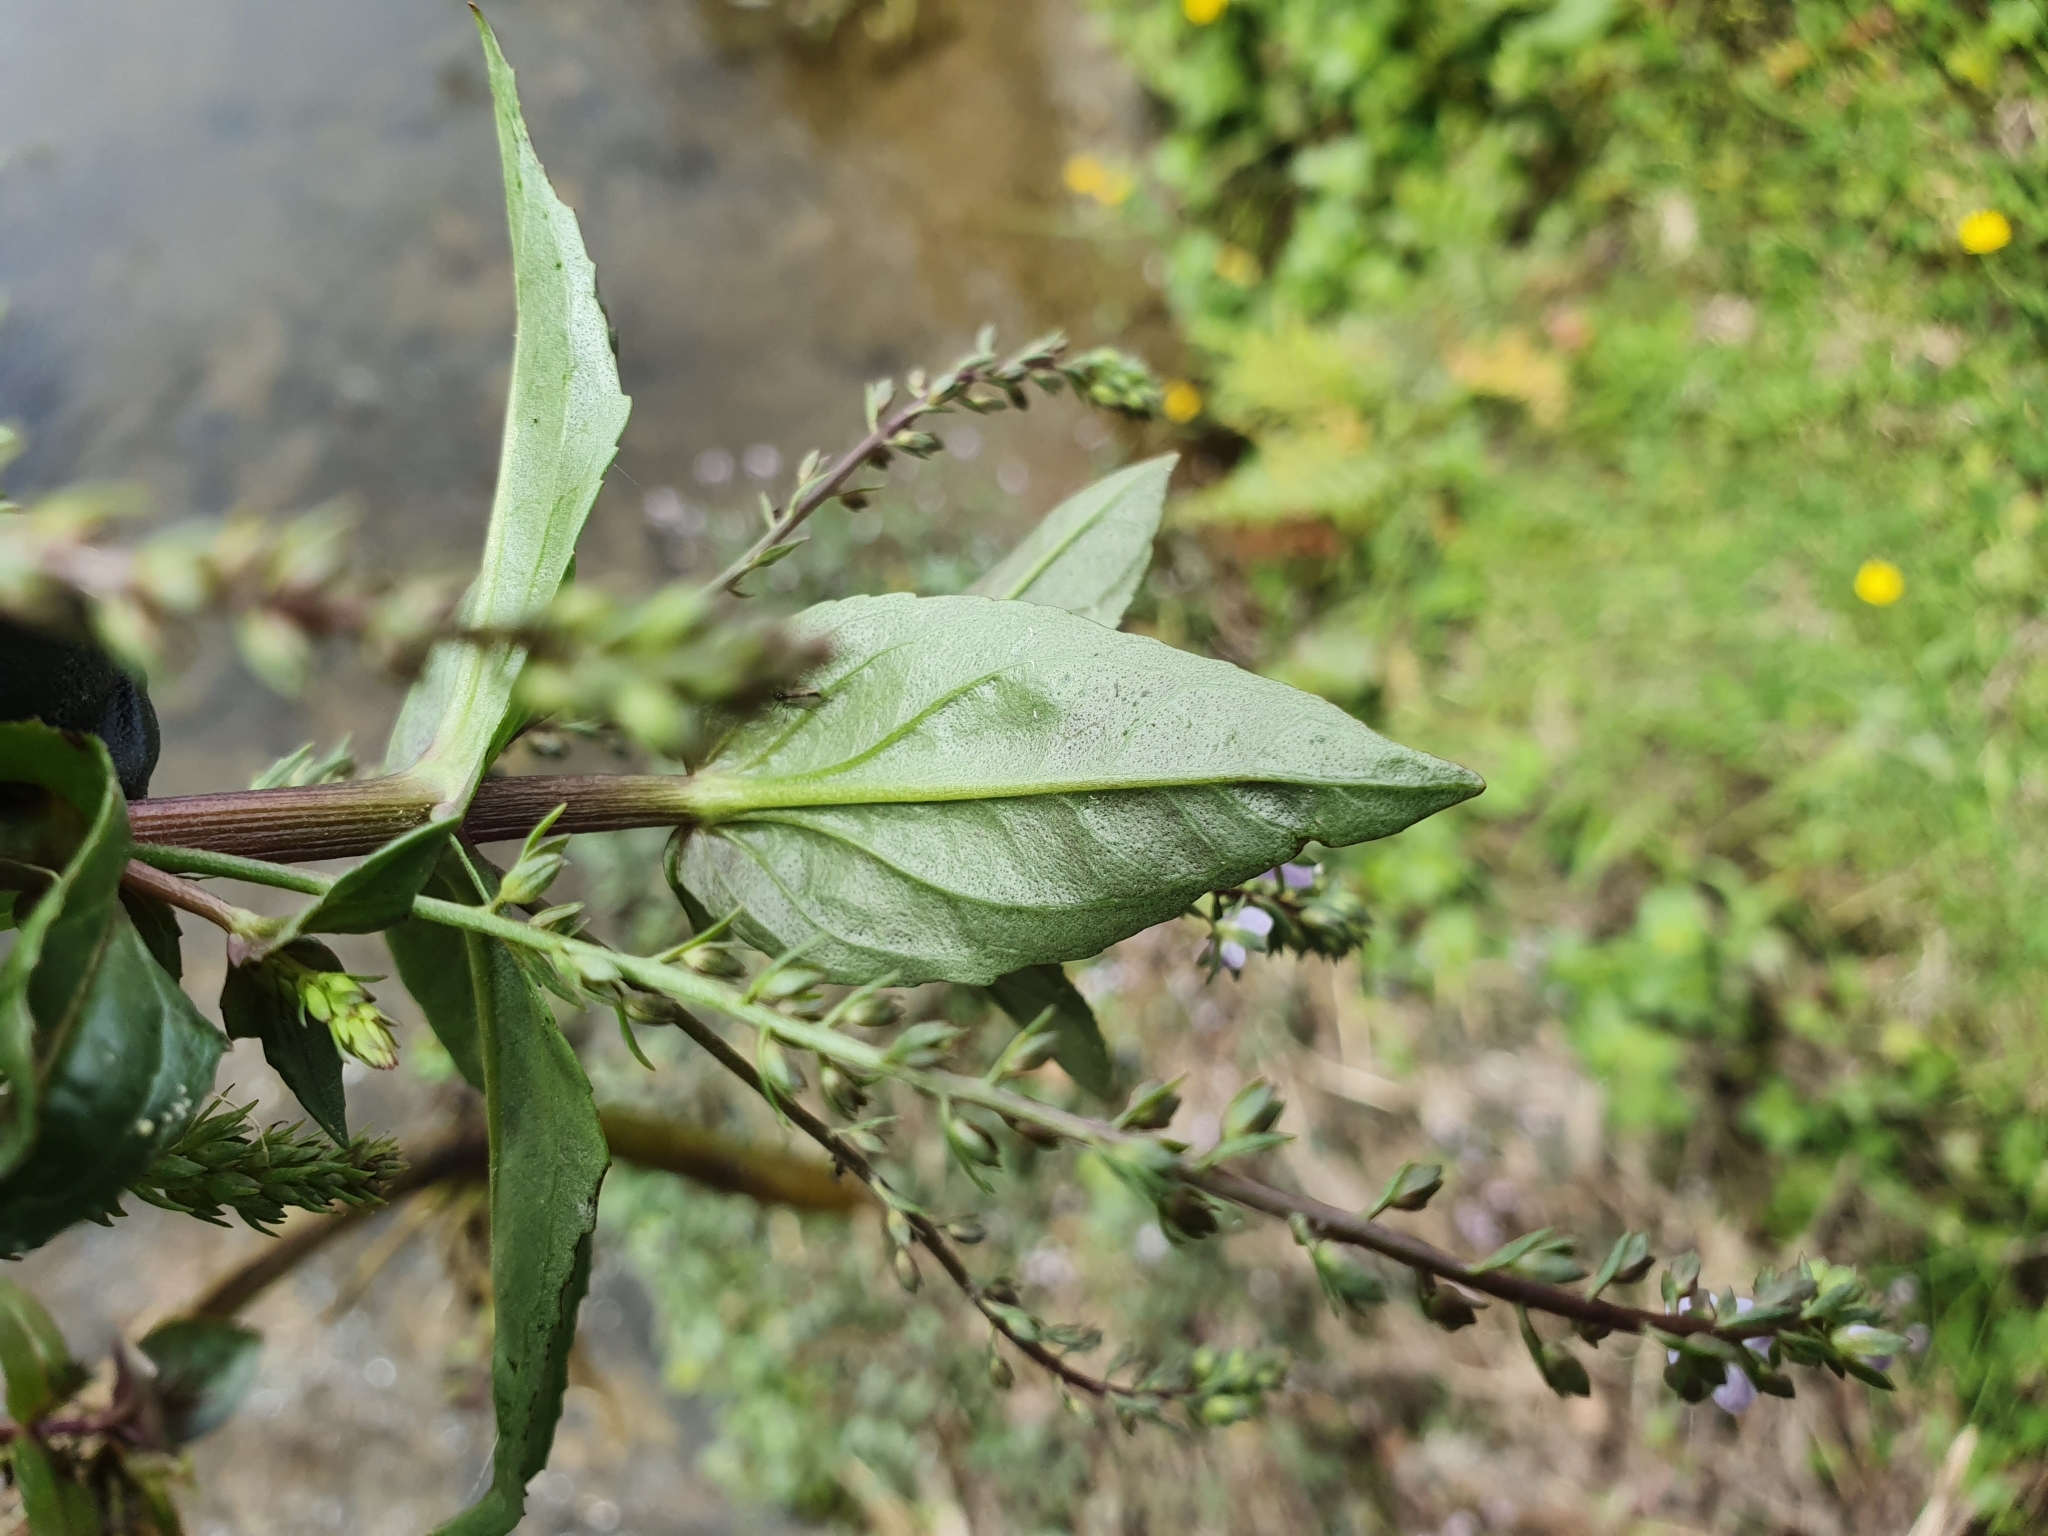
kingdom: Plantae
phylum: Tracheophyta
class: Magnoliopsida
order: Lamiales
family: Plantaginaceae
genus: Veronica
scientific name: Veronica anagallis-aquatica
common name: Water speedwell
